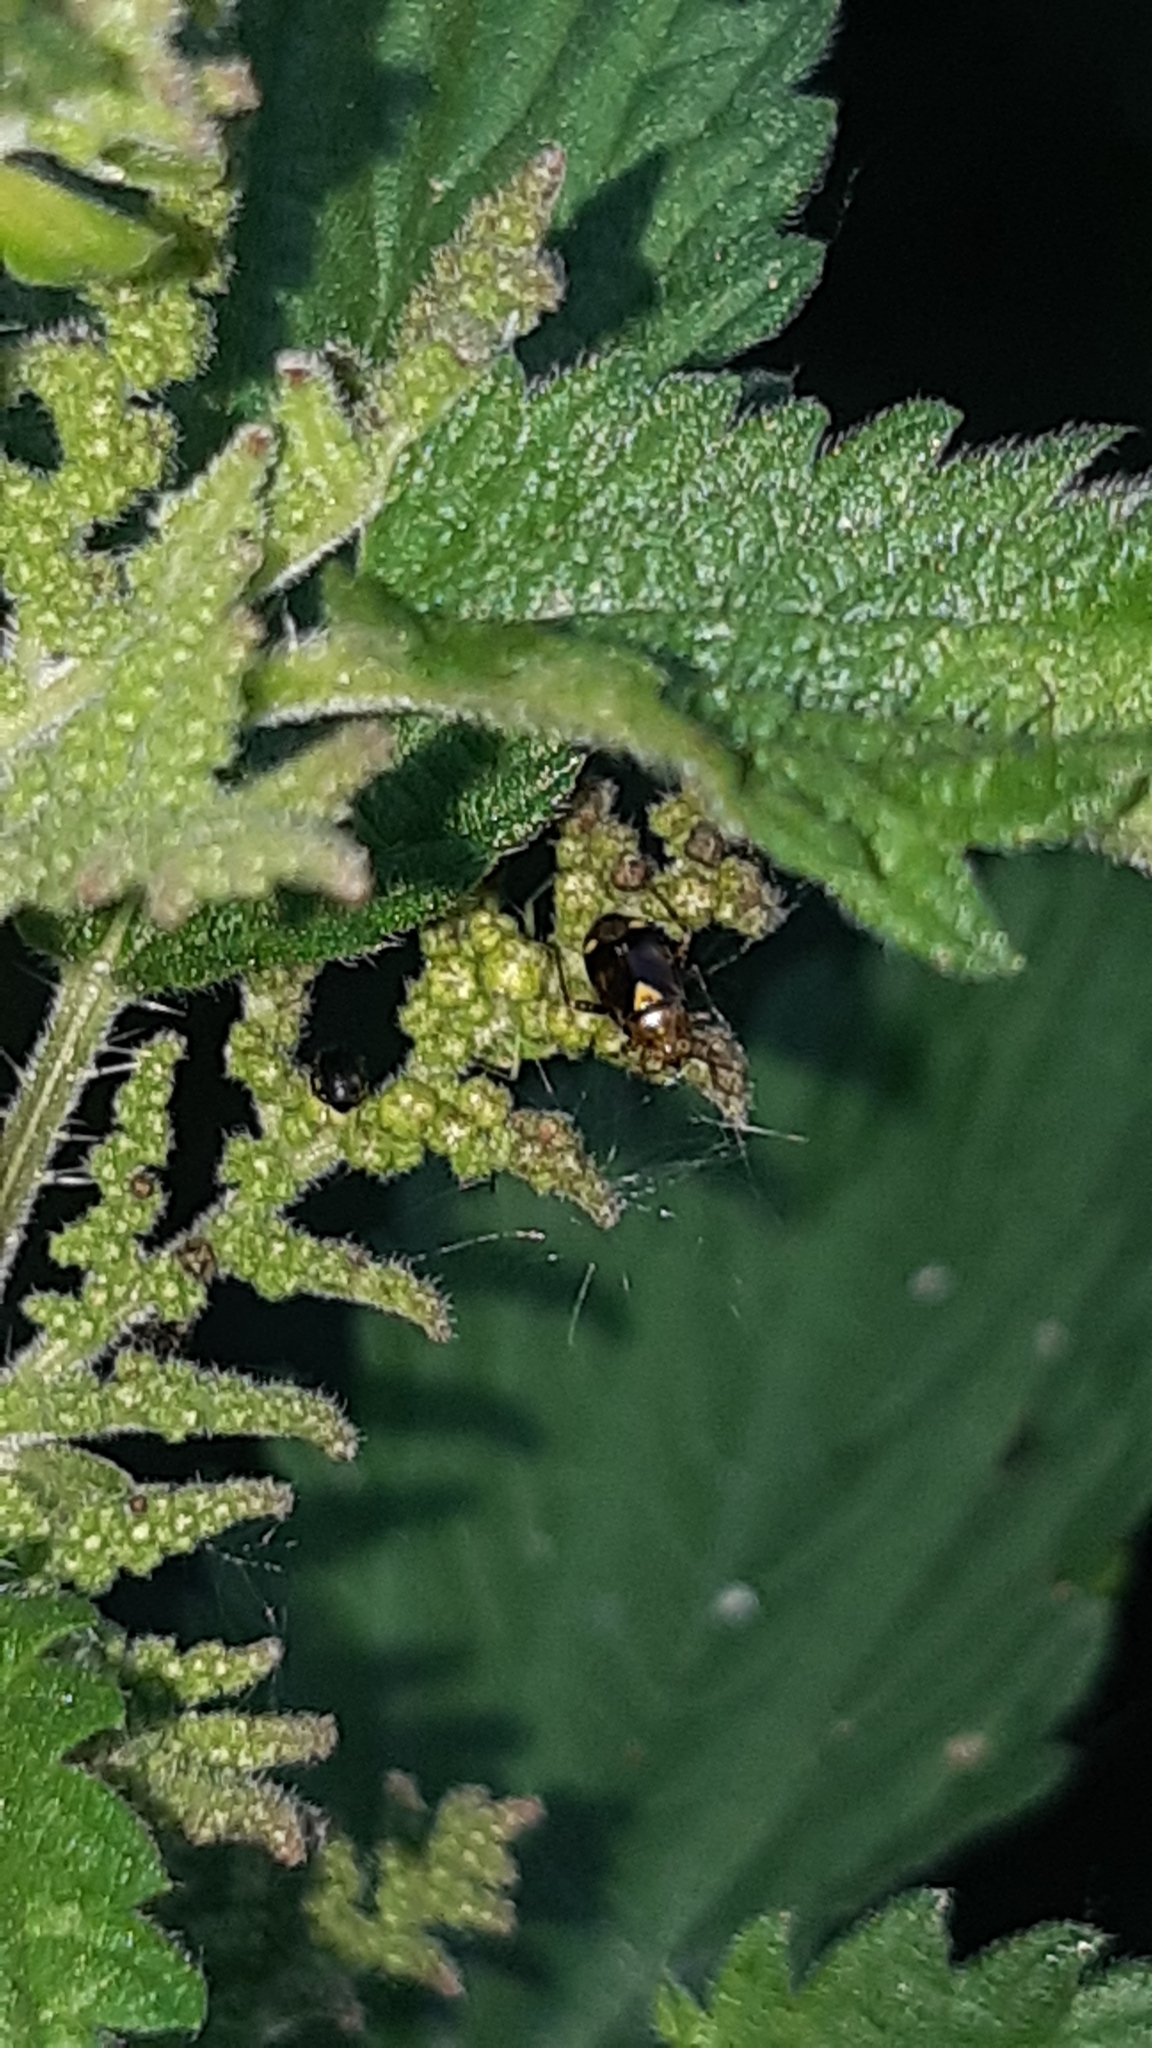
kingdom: Animalia
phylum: Arthropoda
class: Insecta
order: Hemiptera
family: Miridae
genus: Liocoris
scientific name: Liocoris tripustulatus
